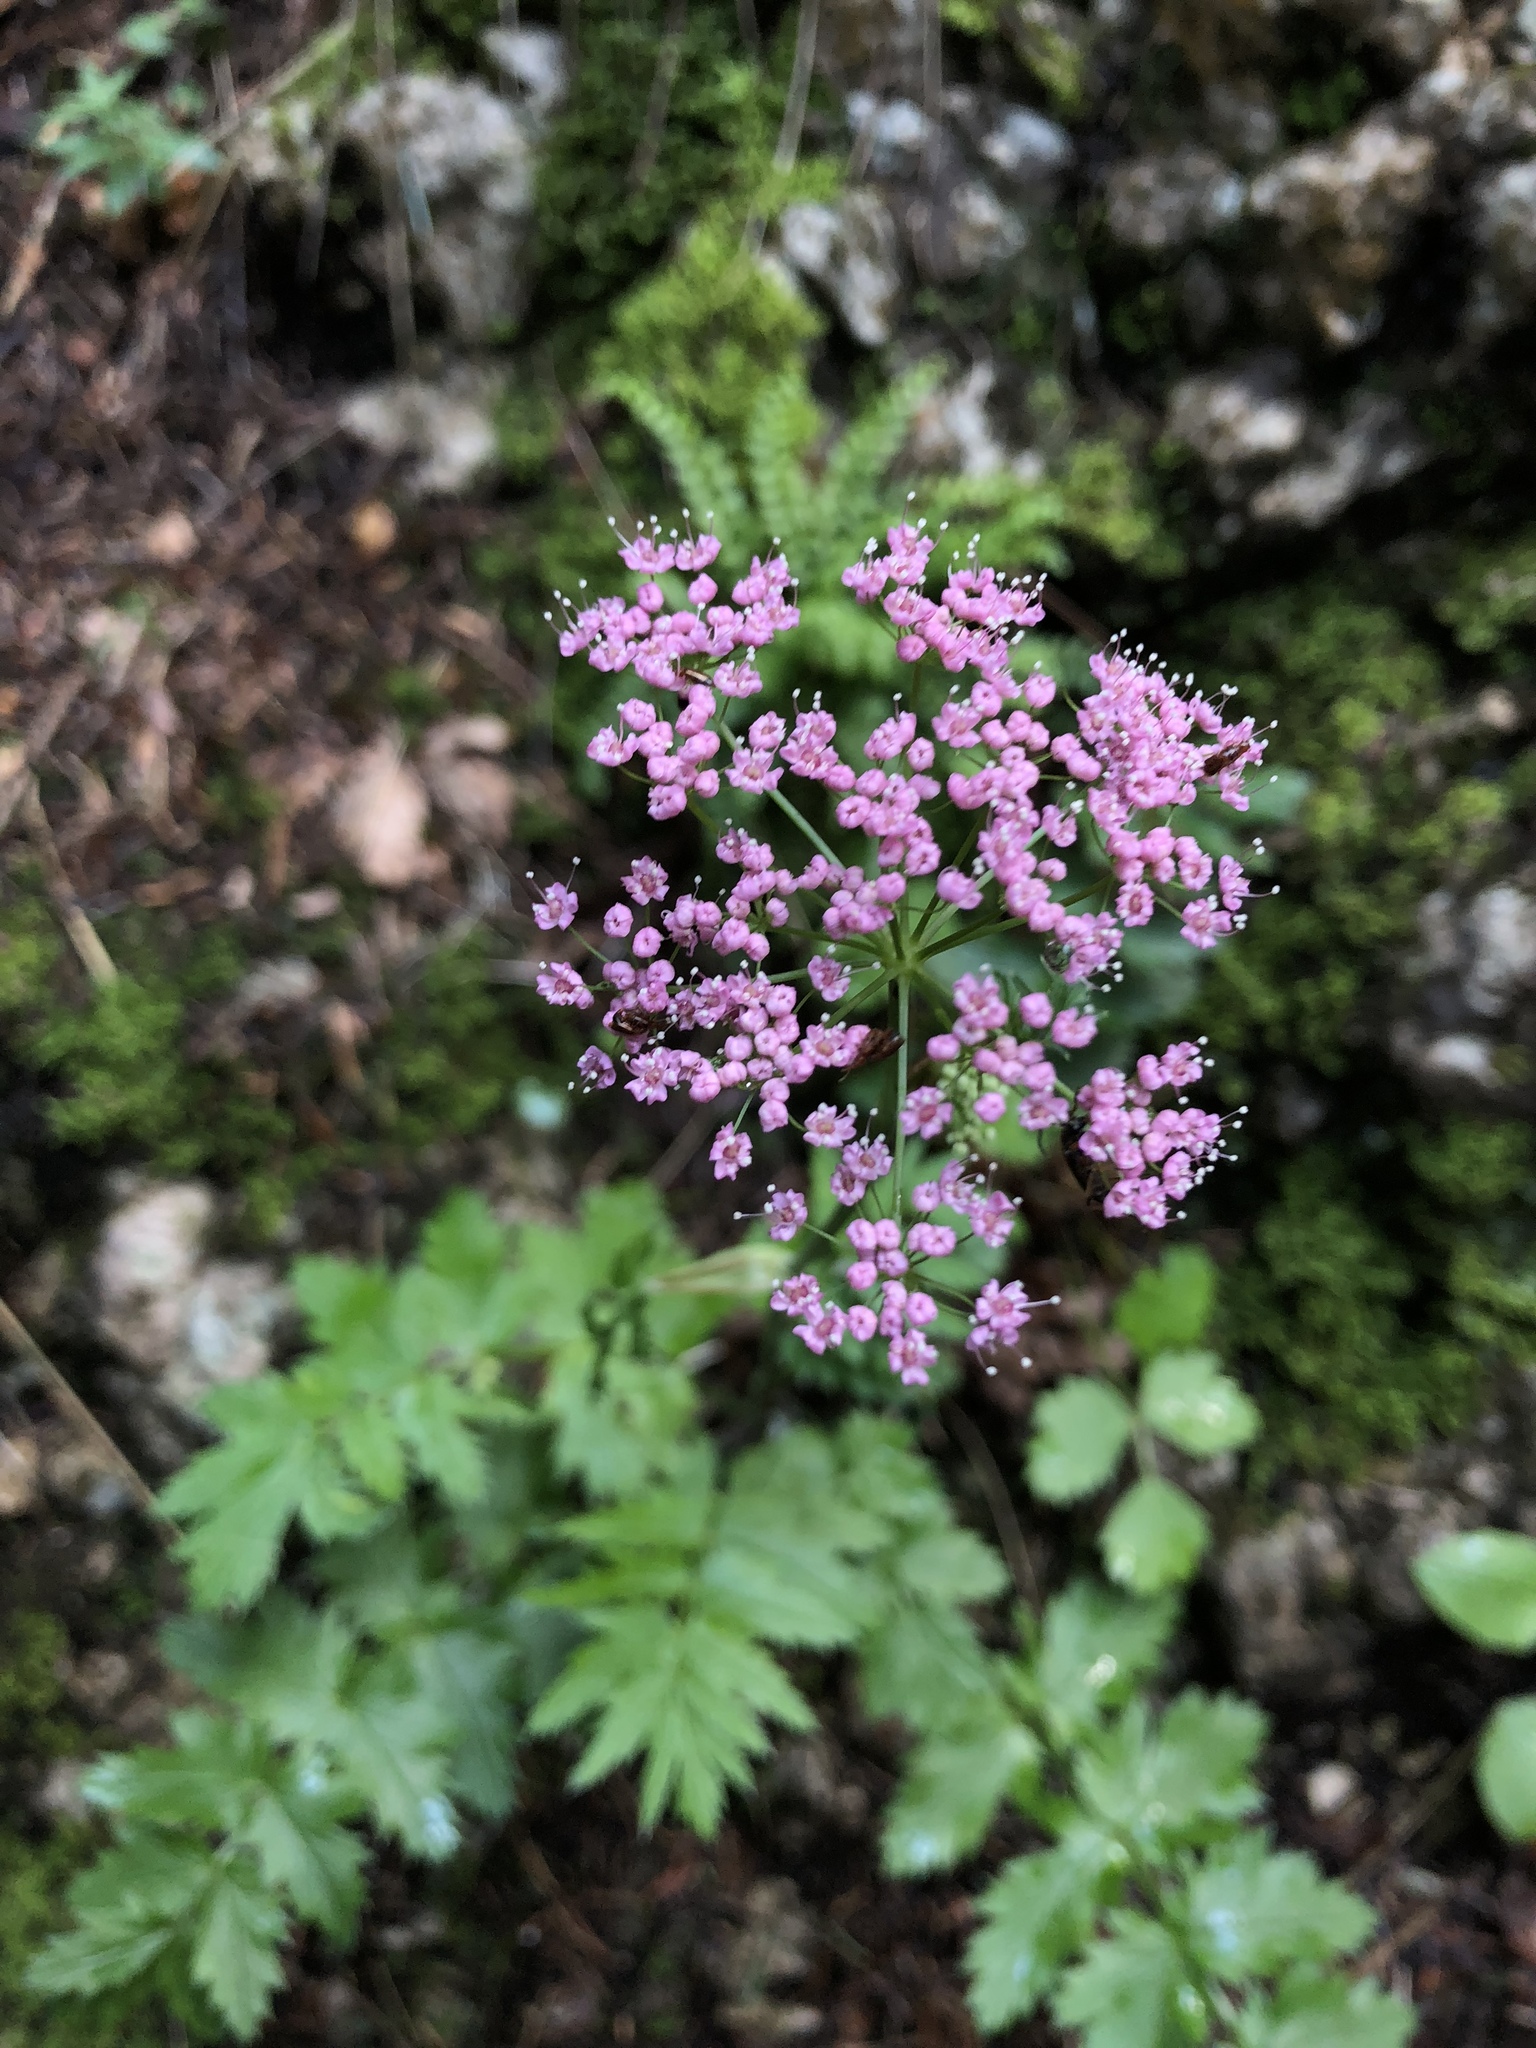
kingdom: Plantae
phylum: Tracheophyta
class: Magnoliopsida
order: Dipsacales
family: Caprifoliaceae
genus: Valeriana
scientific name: Valeriana officinalis
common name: Common valerian
